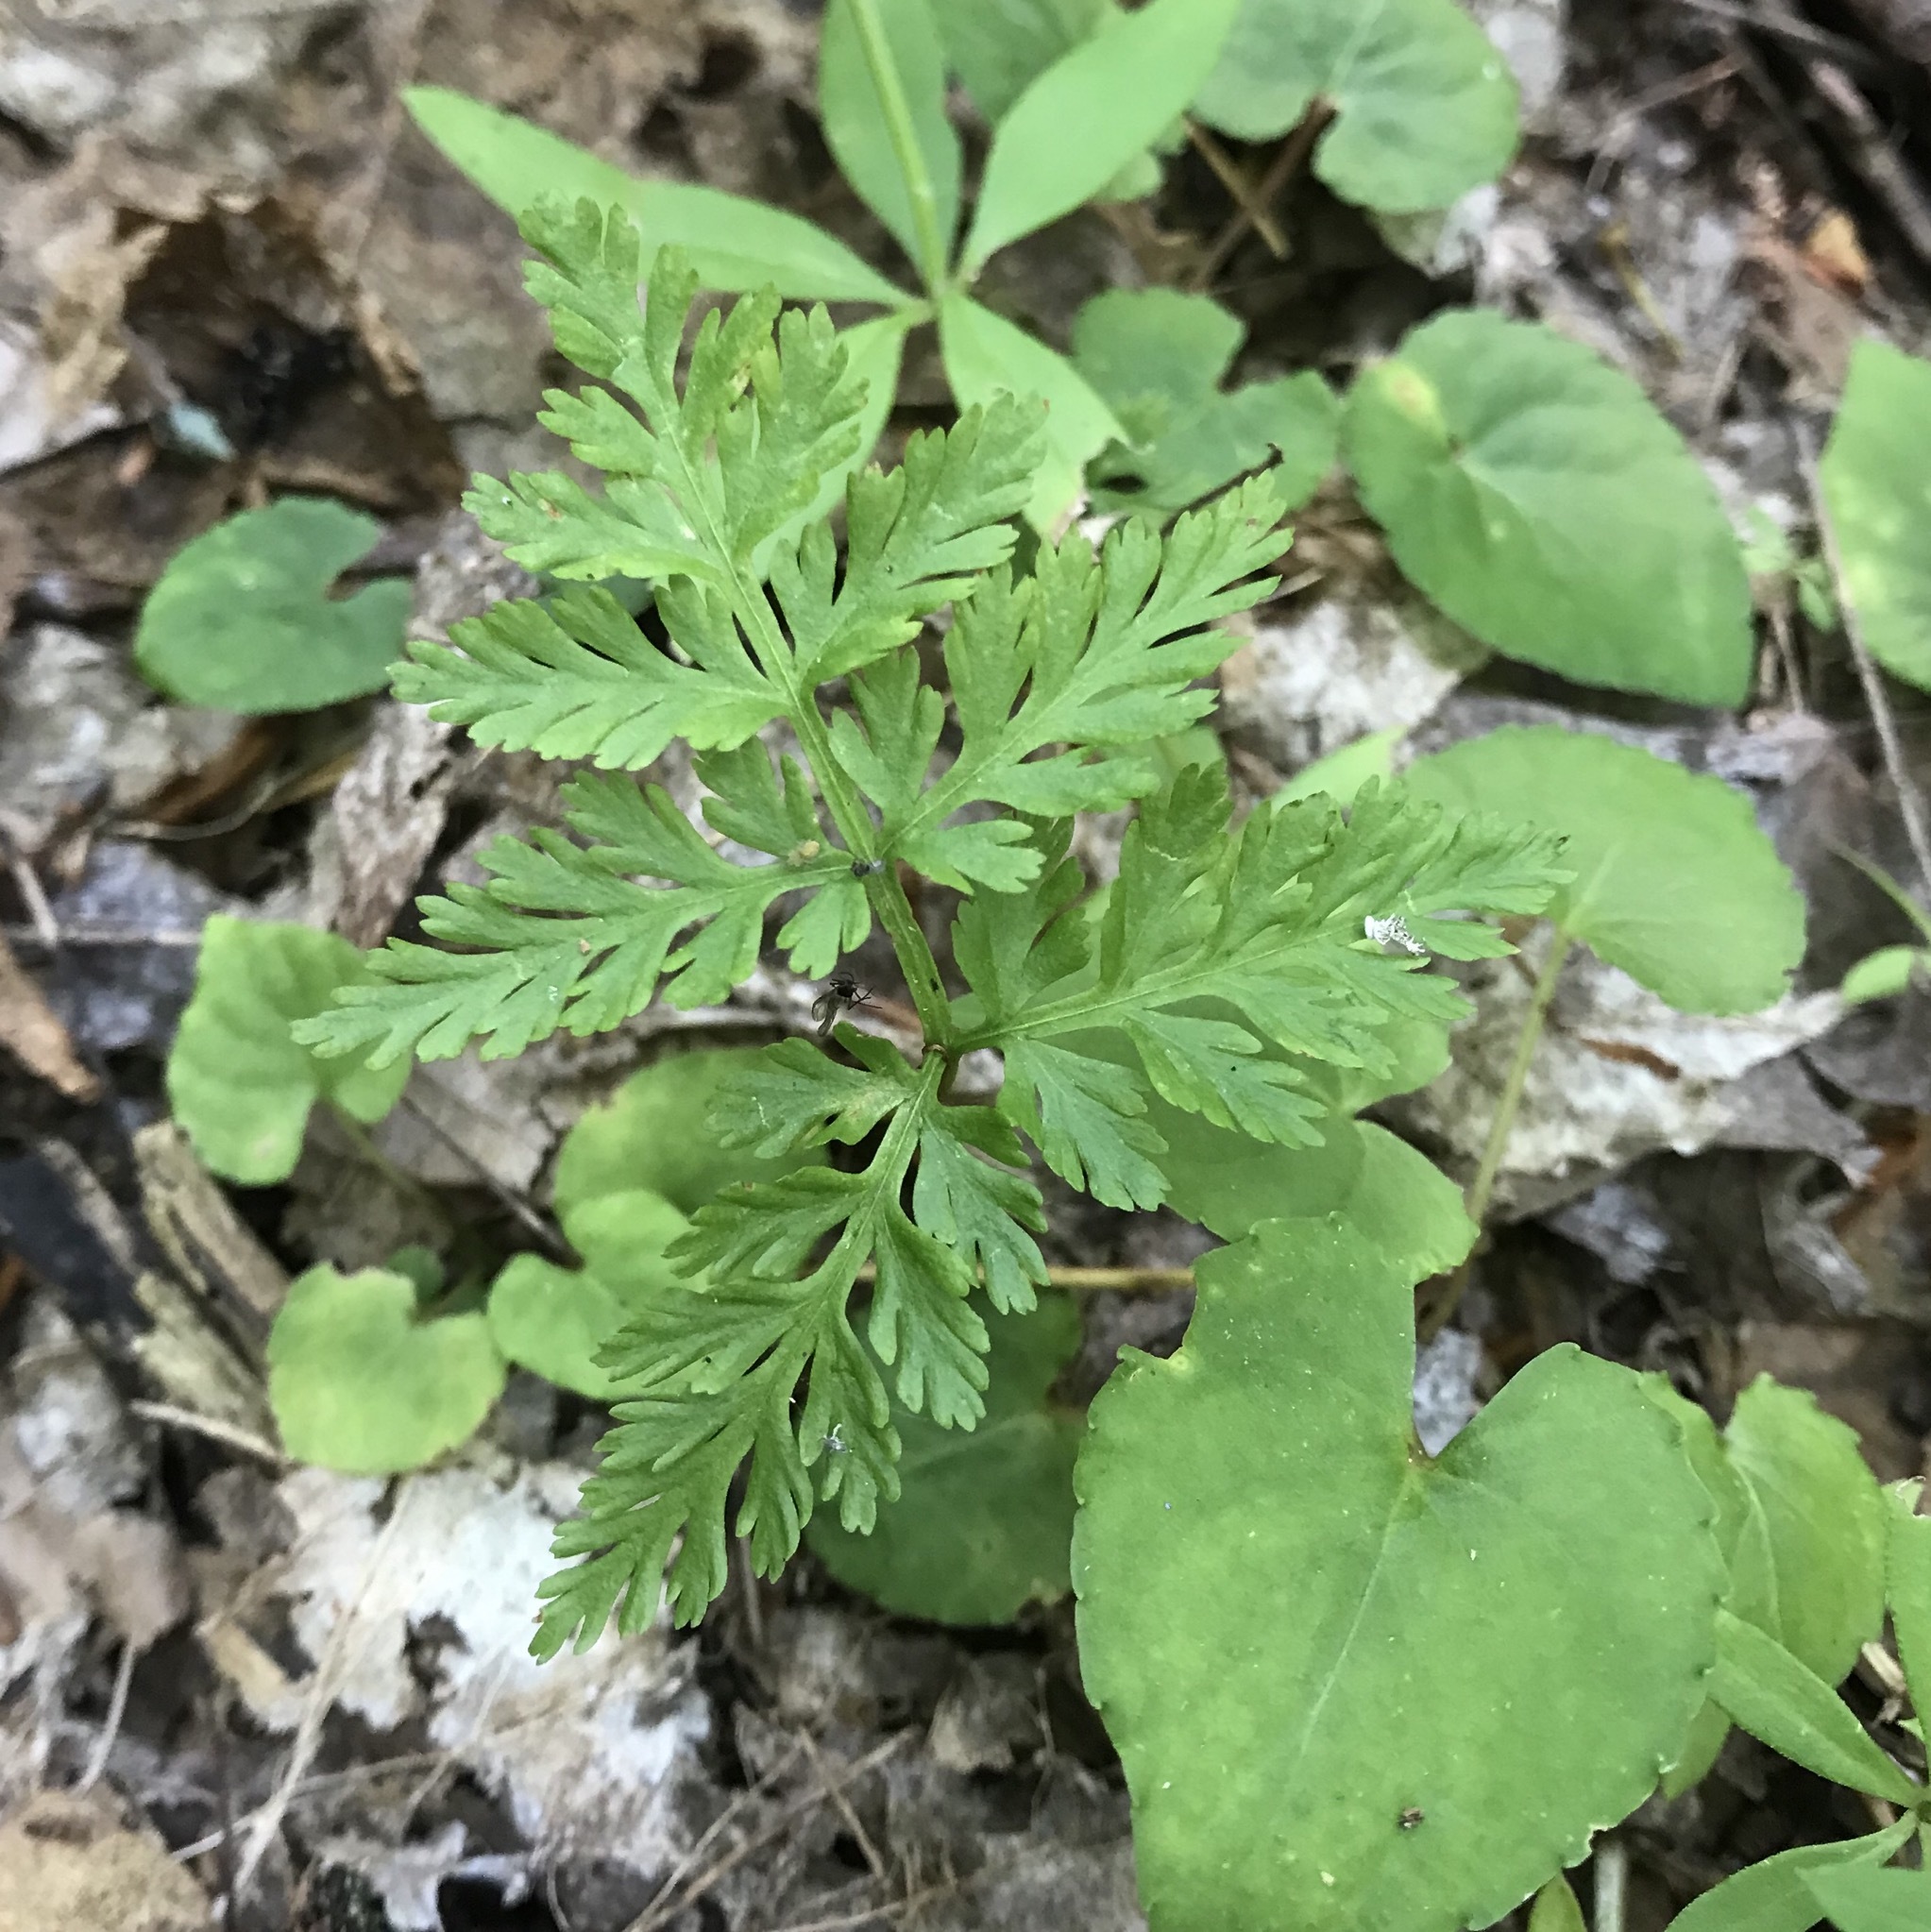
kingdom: Plantae
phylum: Tracheophyta
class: Polypodiopsida
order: Ophioglossales
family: Ophioglossaceae
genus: Botrypus
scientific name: Botrypus virginianus
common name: Common grapefern
